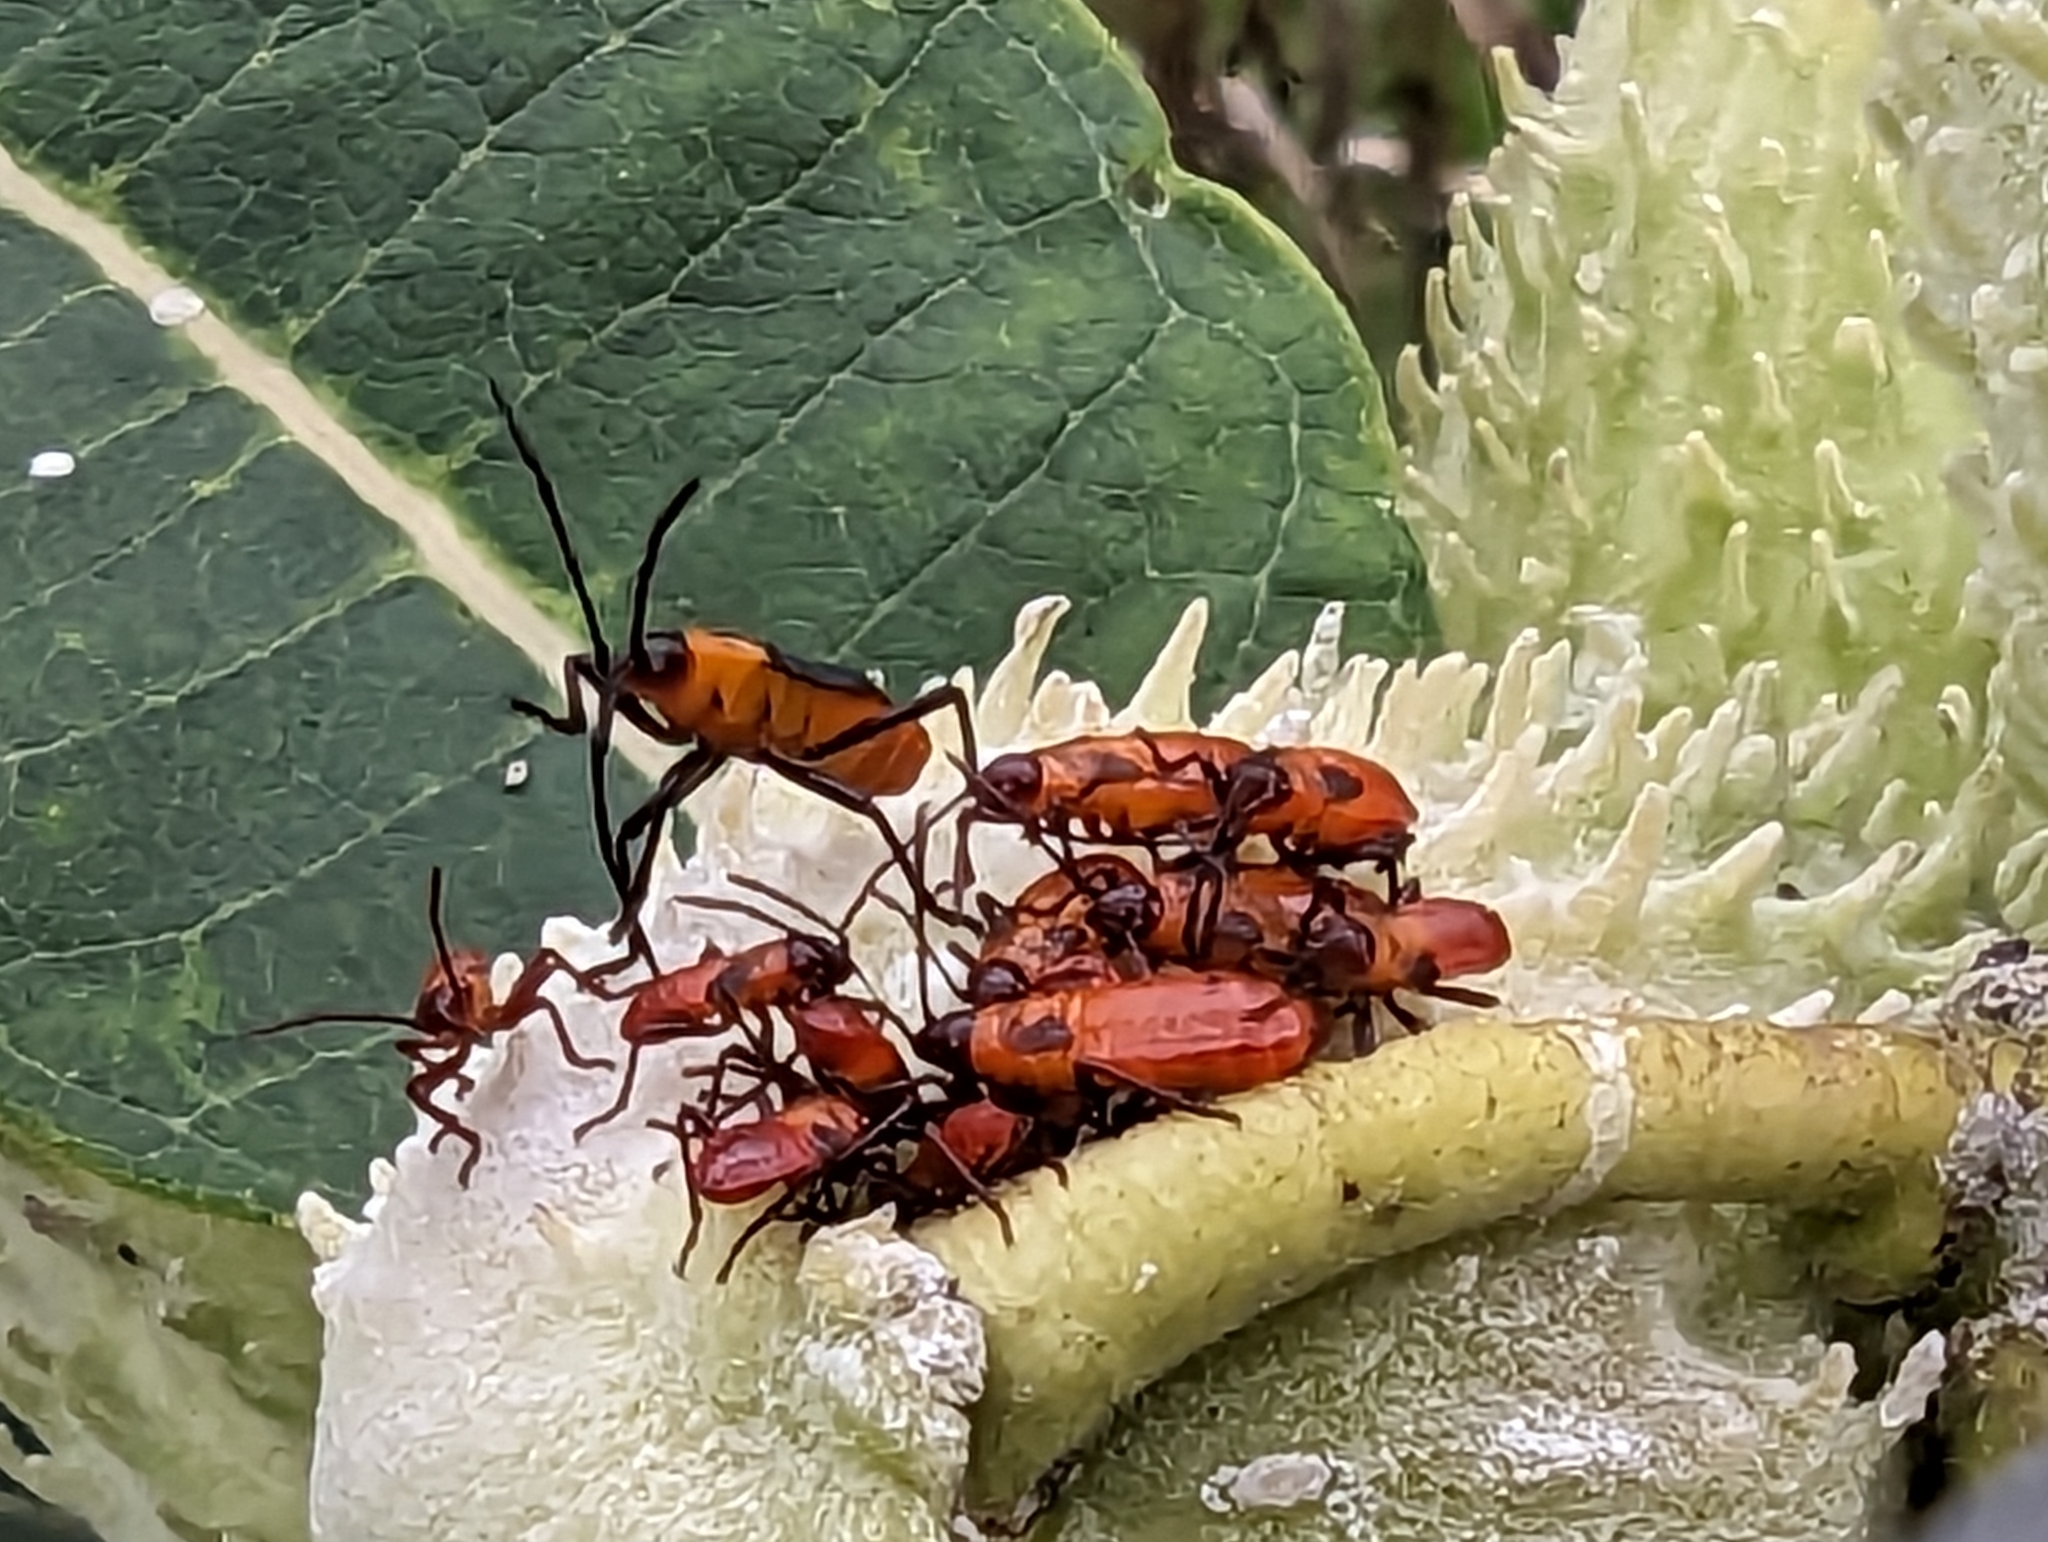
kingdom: Animalia
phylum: Arthropoda
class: Insecta
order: Hemiptera
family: Lygaeidae
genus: Oncopeltus
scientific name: Oncopeltus fasciatus
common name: Large milkweed bug
